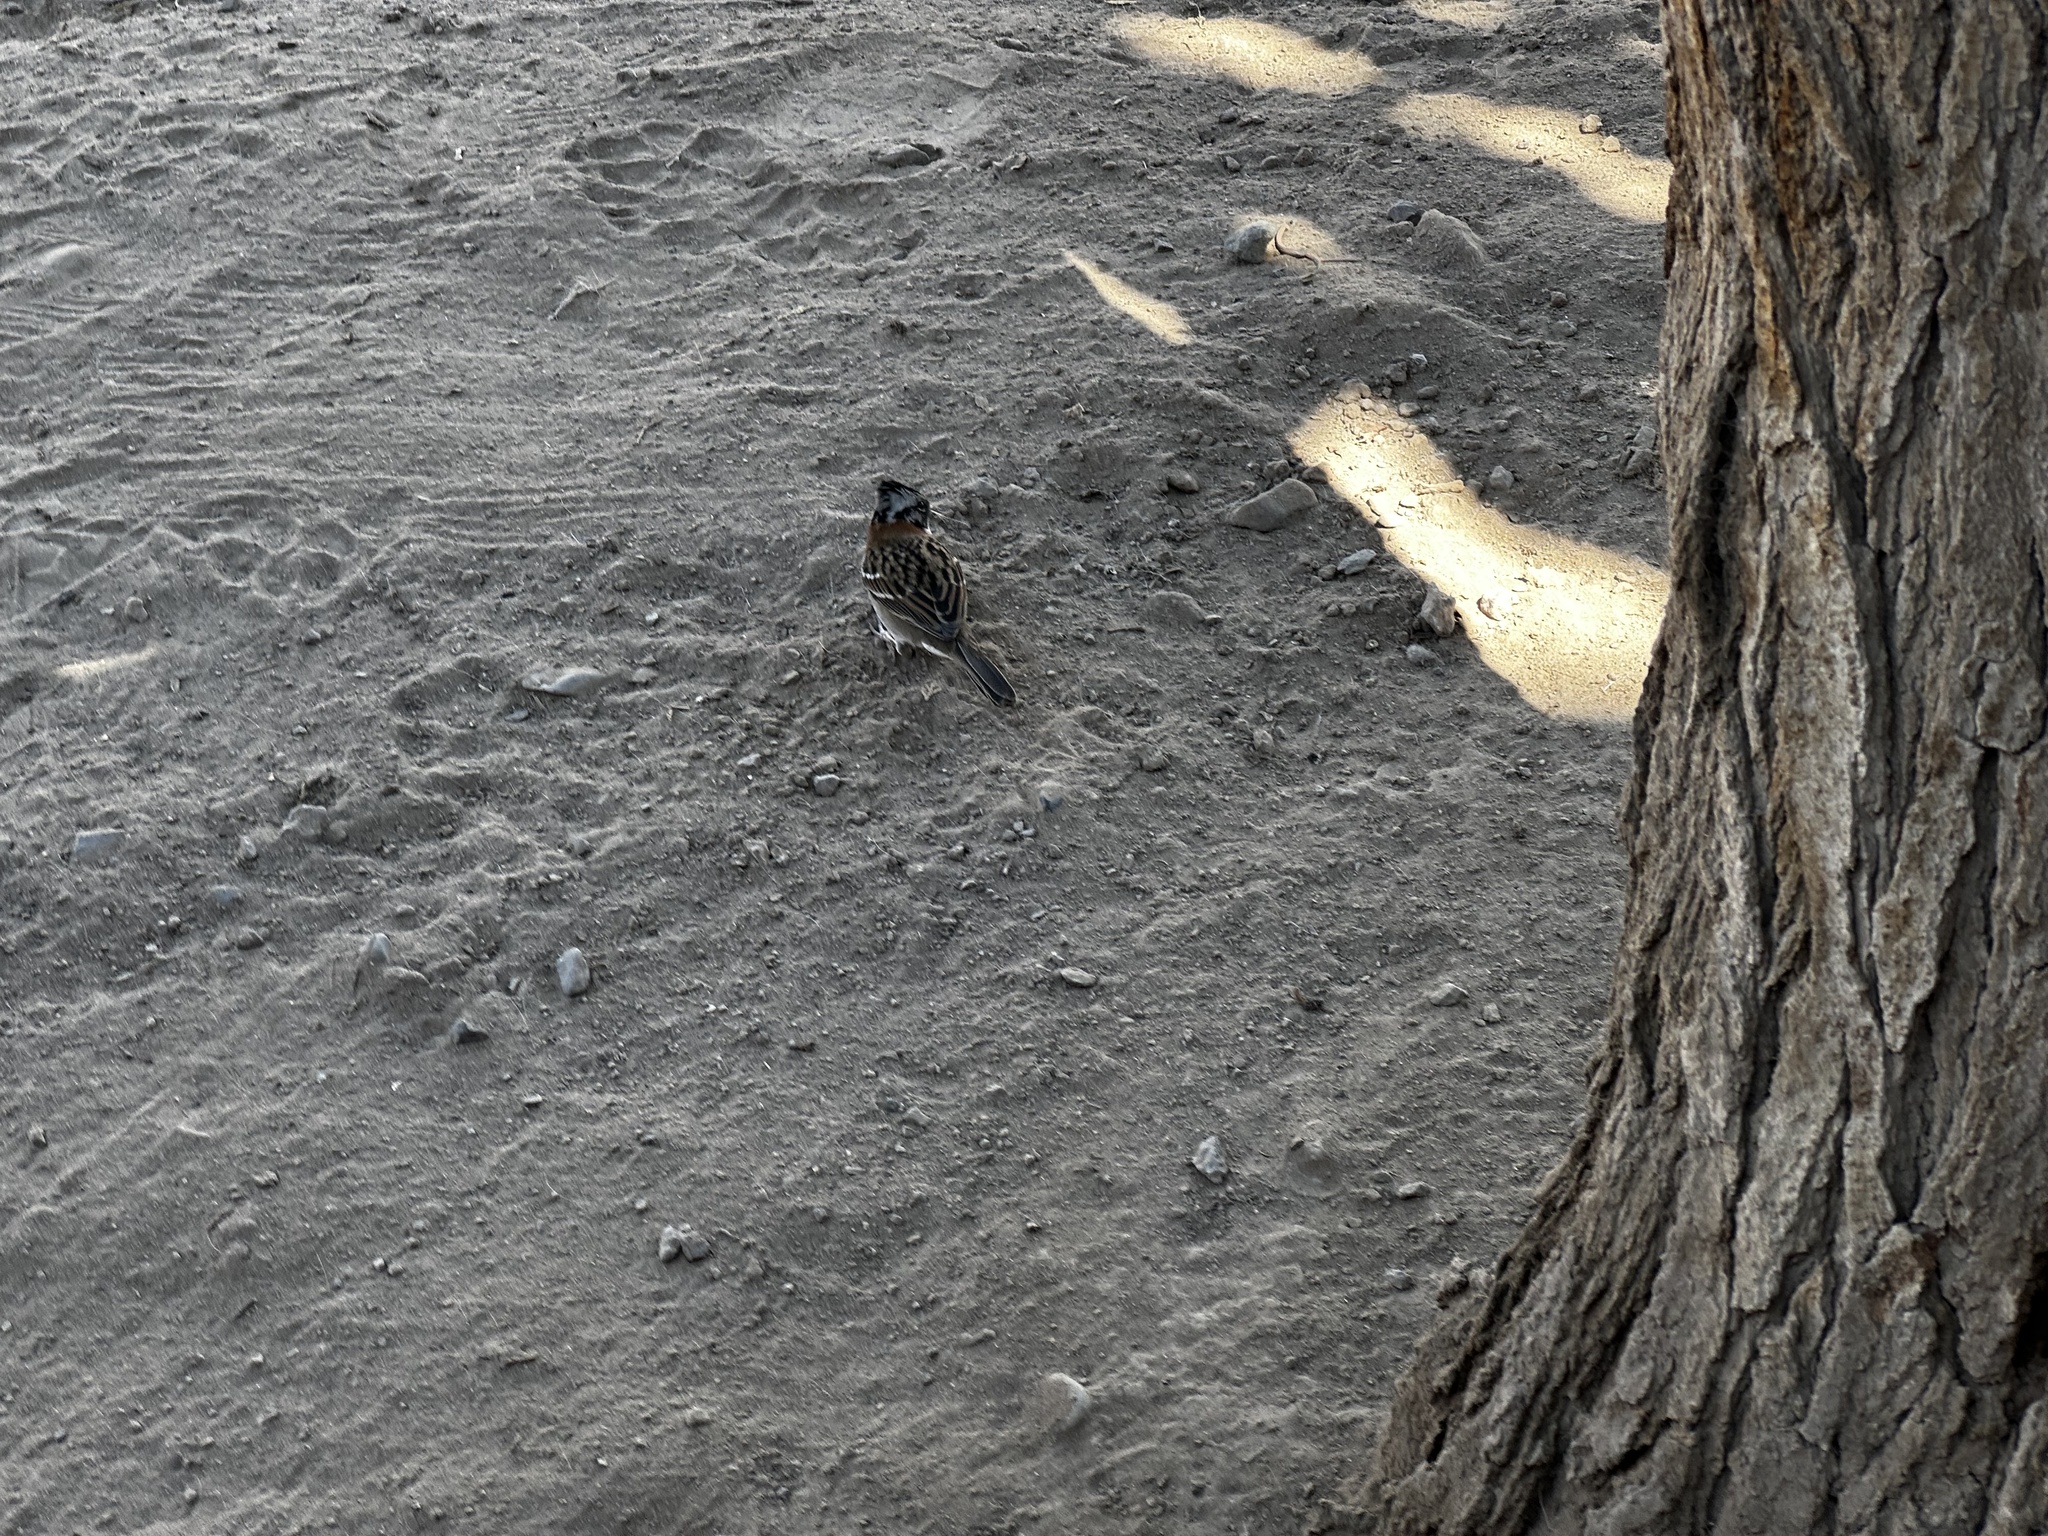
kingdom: Animalia
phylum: Chordata
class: Aves
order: Passeriformes
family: Passerellidae
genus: Zonotrichia
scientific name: Zonotrichia capensis
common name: Rufous-collared sparrow
